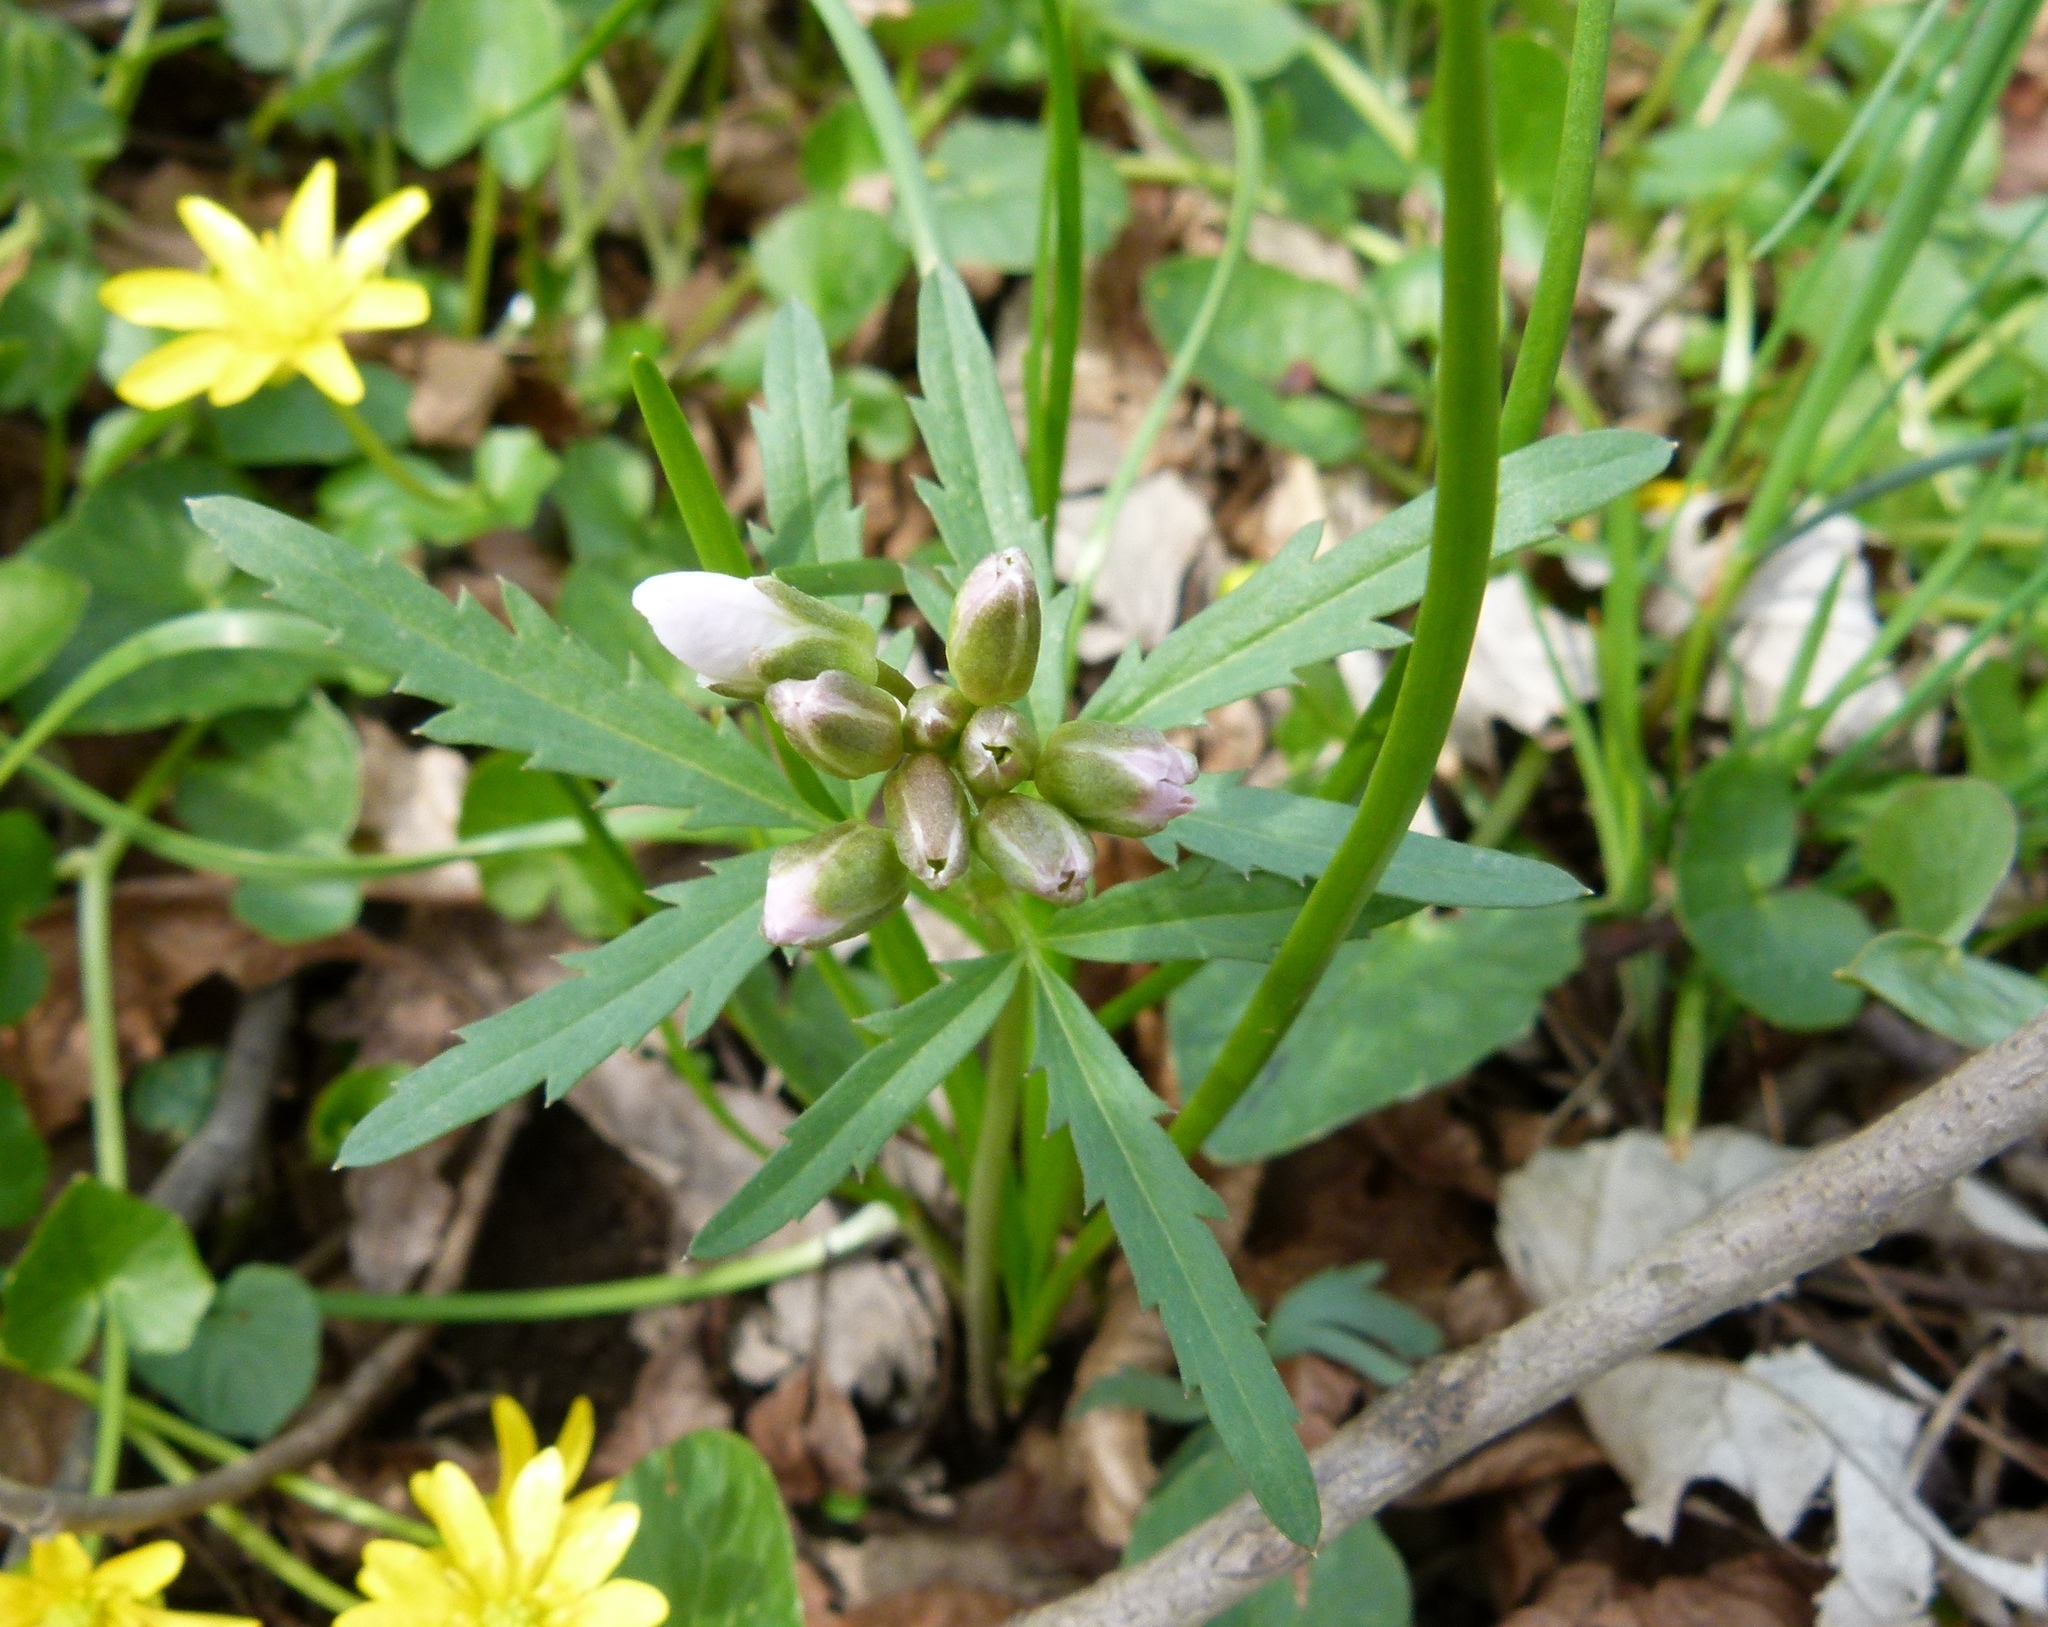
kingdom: Plantae
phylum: Tracheophyta
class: Magnoliopsida
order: Brassicales
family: Brassicaceae
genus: Cardamine
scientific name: Cardamine concatenata
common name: Cut-leaf toothcup
